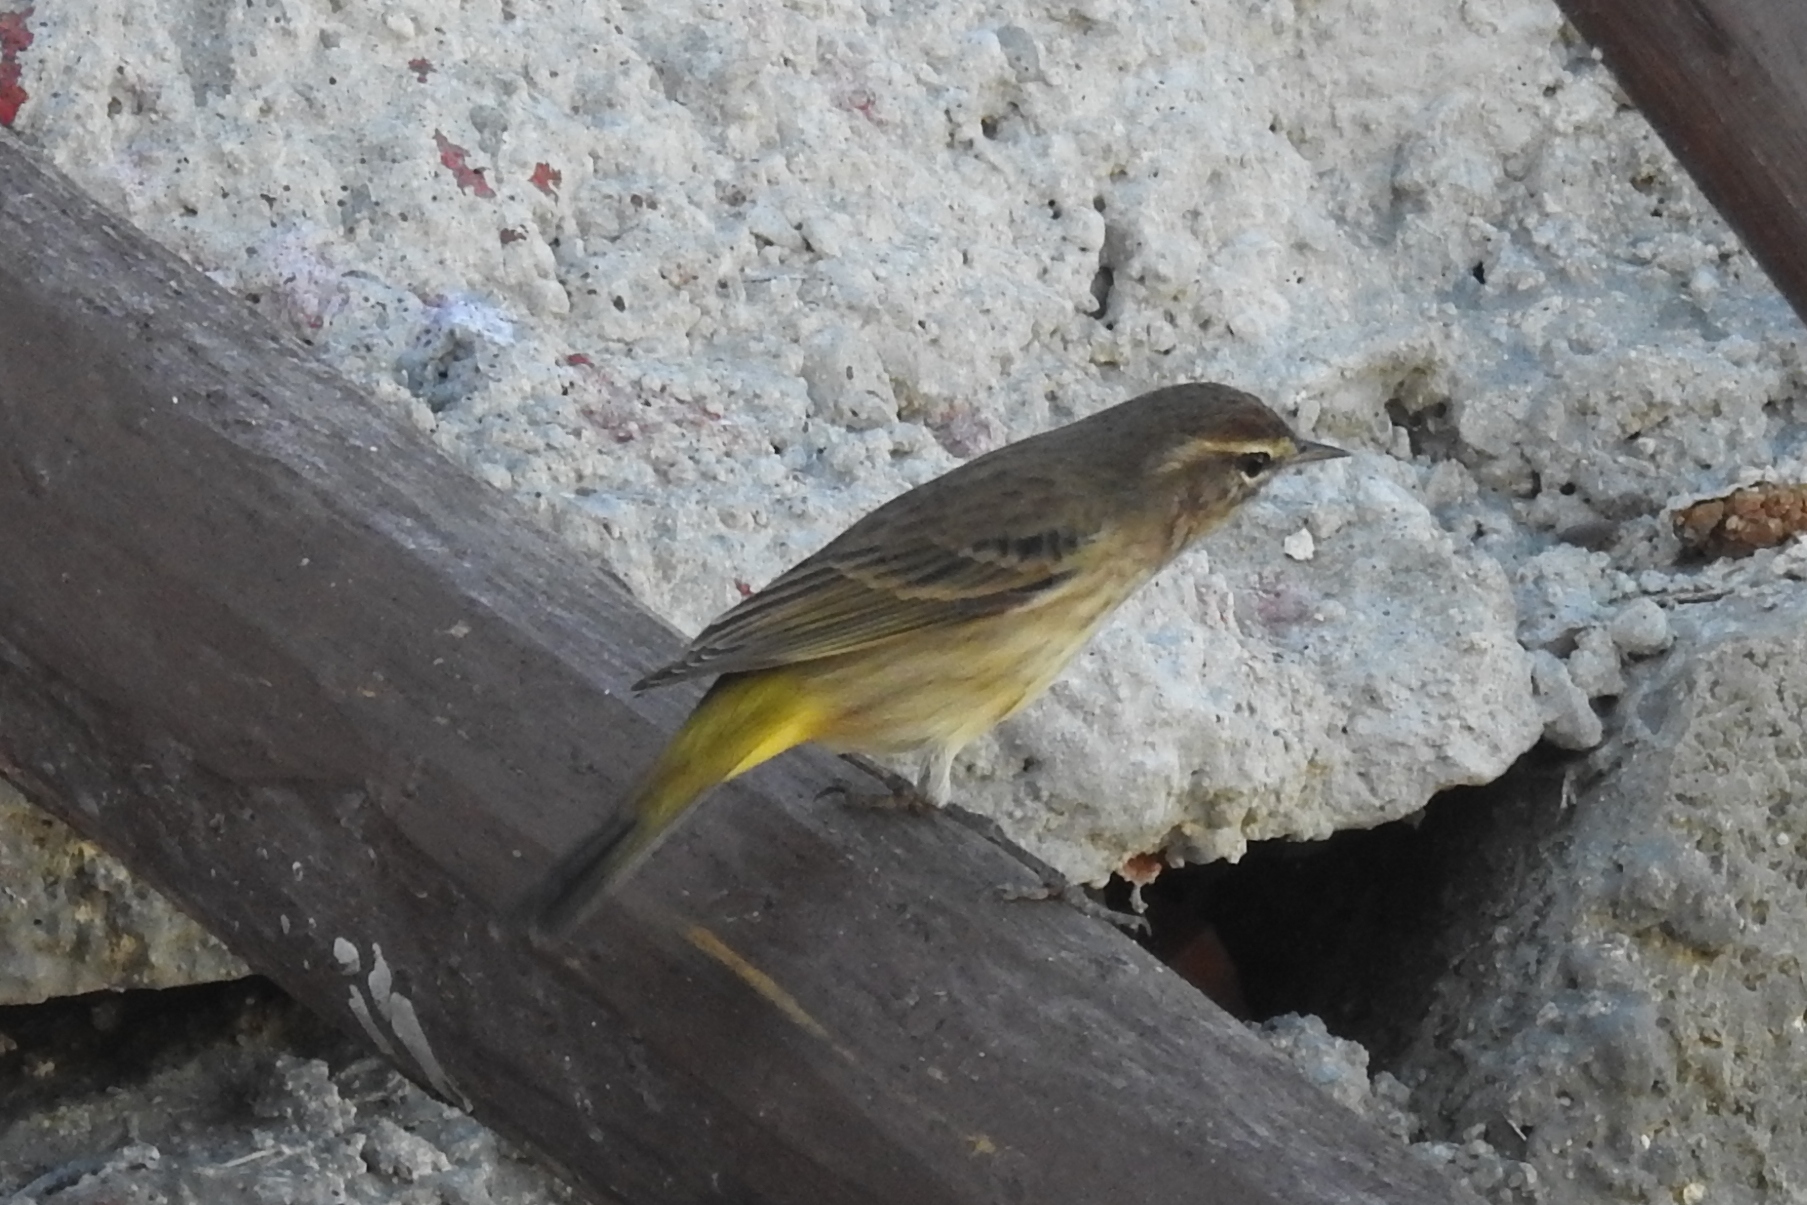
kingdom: Animalia
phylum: Chordata
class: Aves
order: Passeriformes
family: Parulidae
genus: Setophaga
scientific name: Setophaga palmarum
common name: Palm warbler
